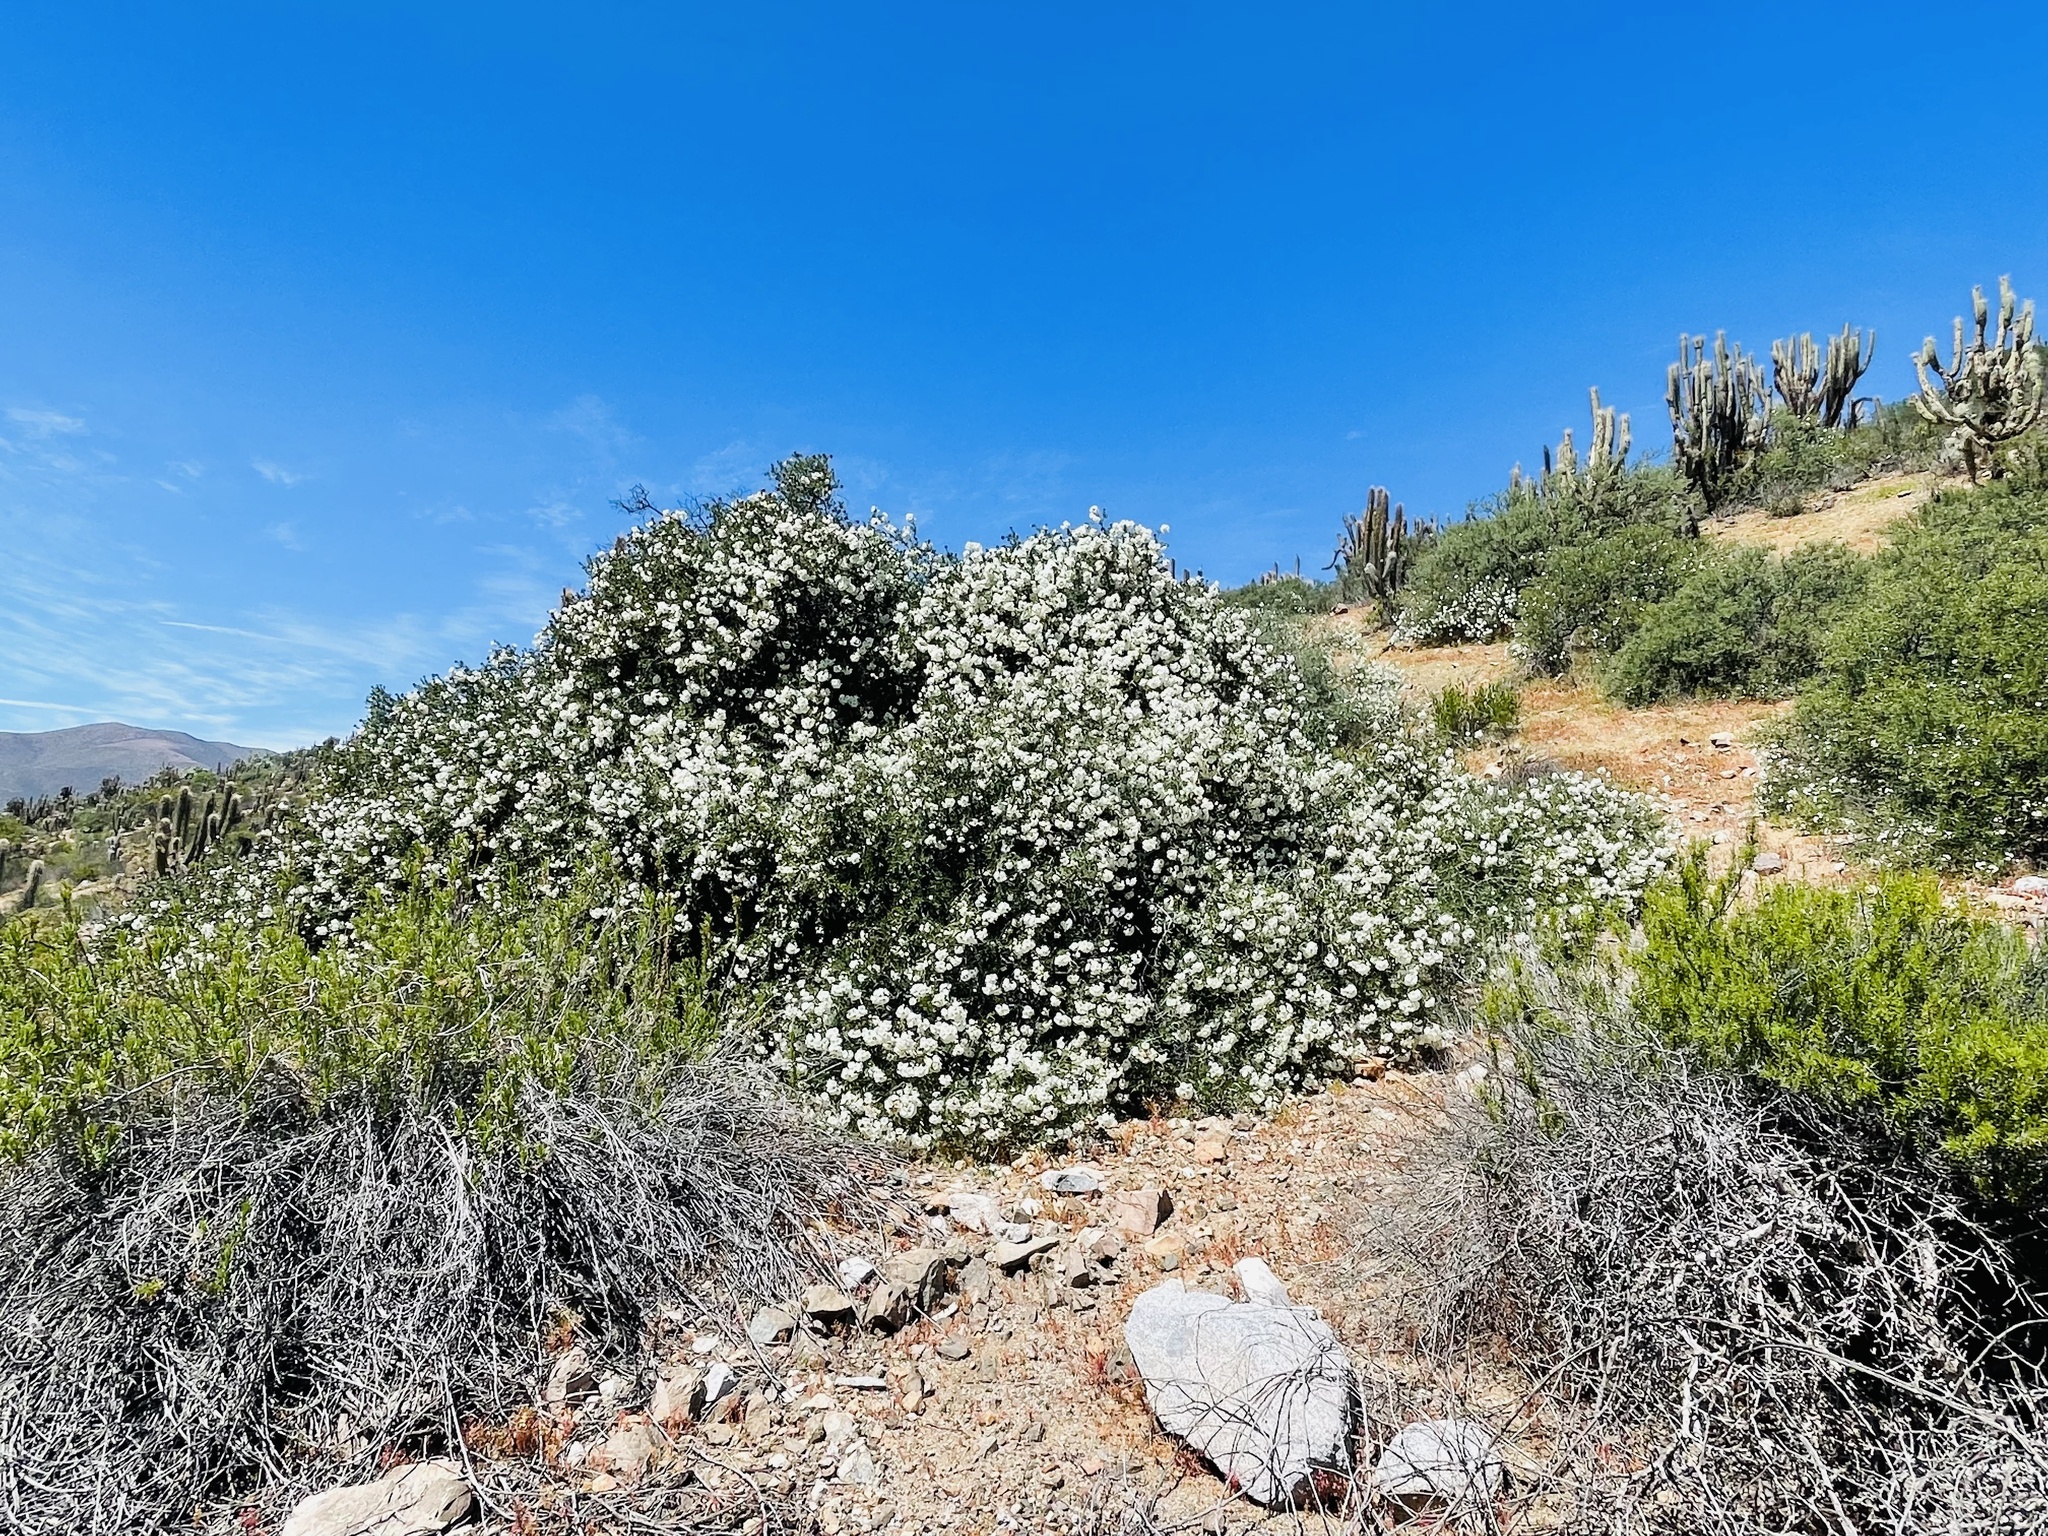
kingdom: Plantae
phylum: Tracheophyta
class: Magnoliopsida
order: Boraginales
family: Cordiaceae
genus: Cordia
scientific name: Cordia decandra
